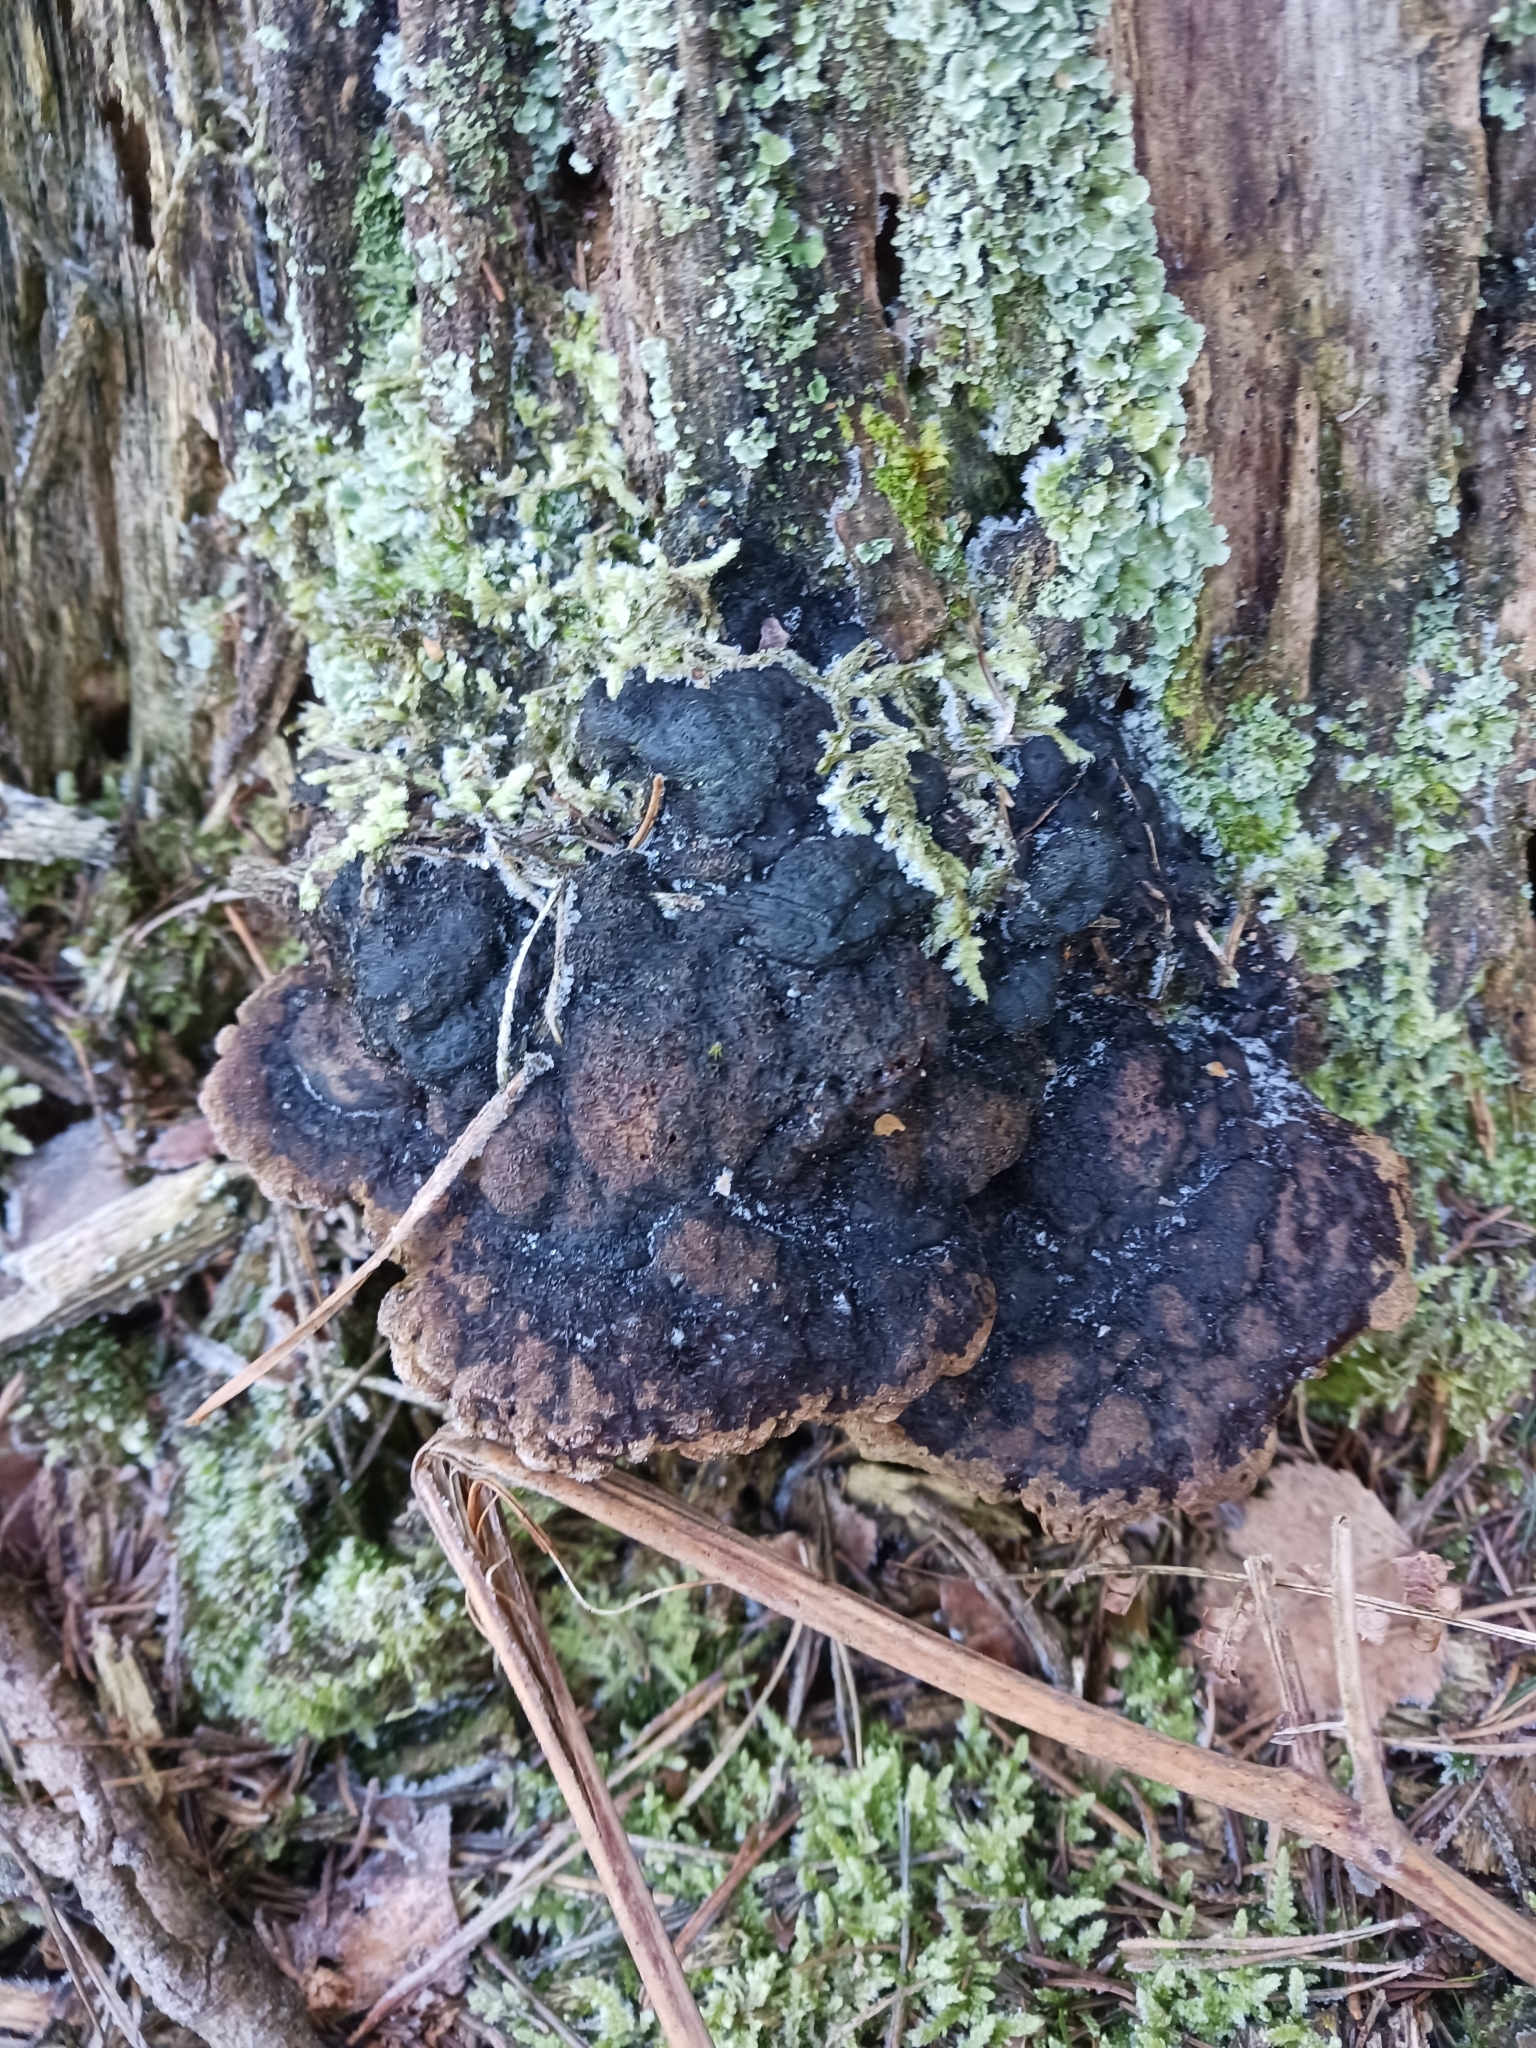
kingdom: Fungi
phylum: Basidiomycota
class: Agaricomycetes
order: Gloeophyllales
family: Gloeophyllaceae
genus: Gloeophyllum
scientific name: Gloeophyllum odoratum
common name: Anise mazegill
